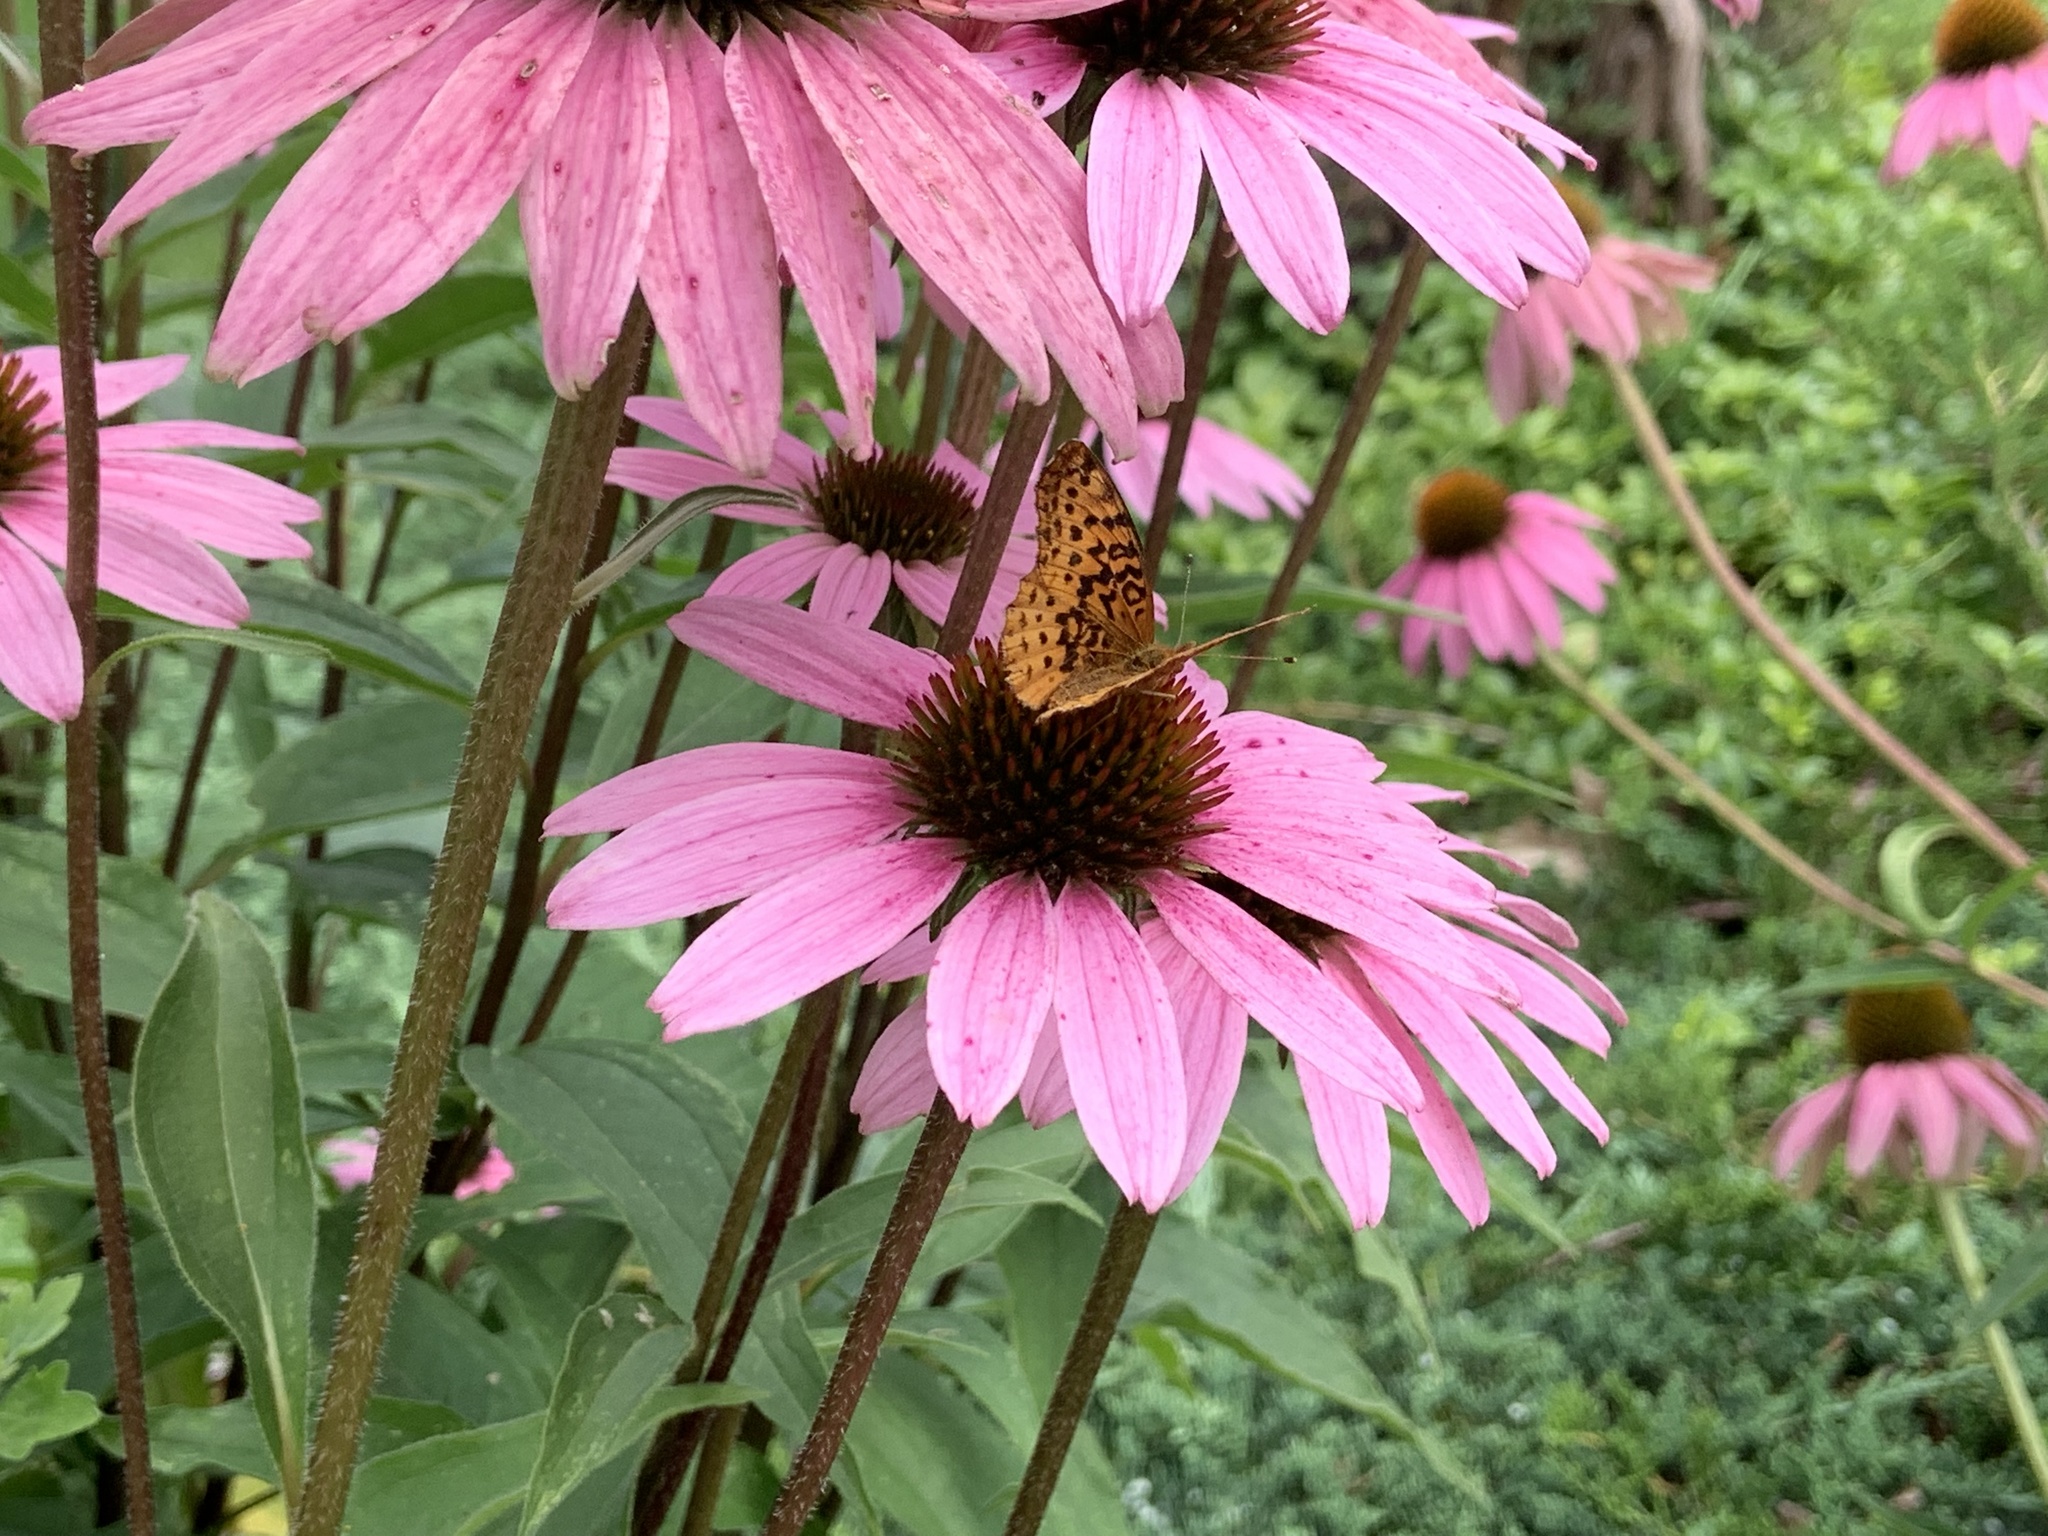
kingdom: Animalia
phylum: Arthropoda
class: Insecta
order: Lepidoptera
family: Nymphalidae
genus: Clossiana
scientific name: Clossiana toddi
